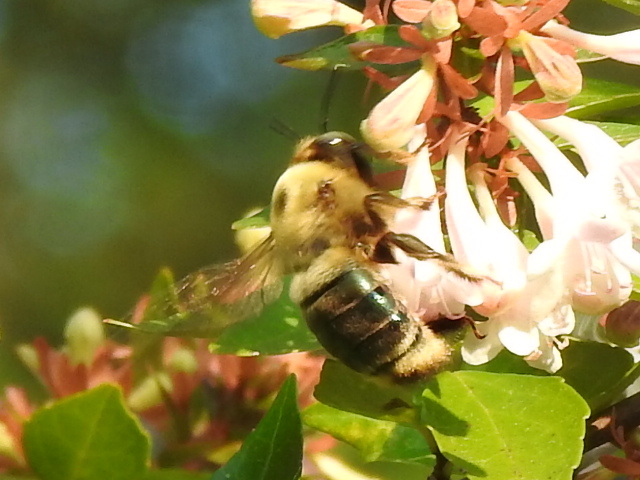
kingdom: Animalia
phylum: Arthropoda
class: Insecta
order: Hymenoptera
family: Apidae
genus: Xylocopa
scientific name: Xylocopa virginica
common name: Carpenter bee
